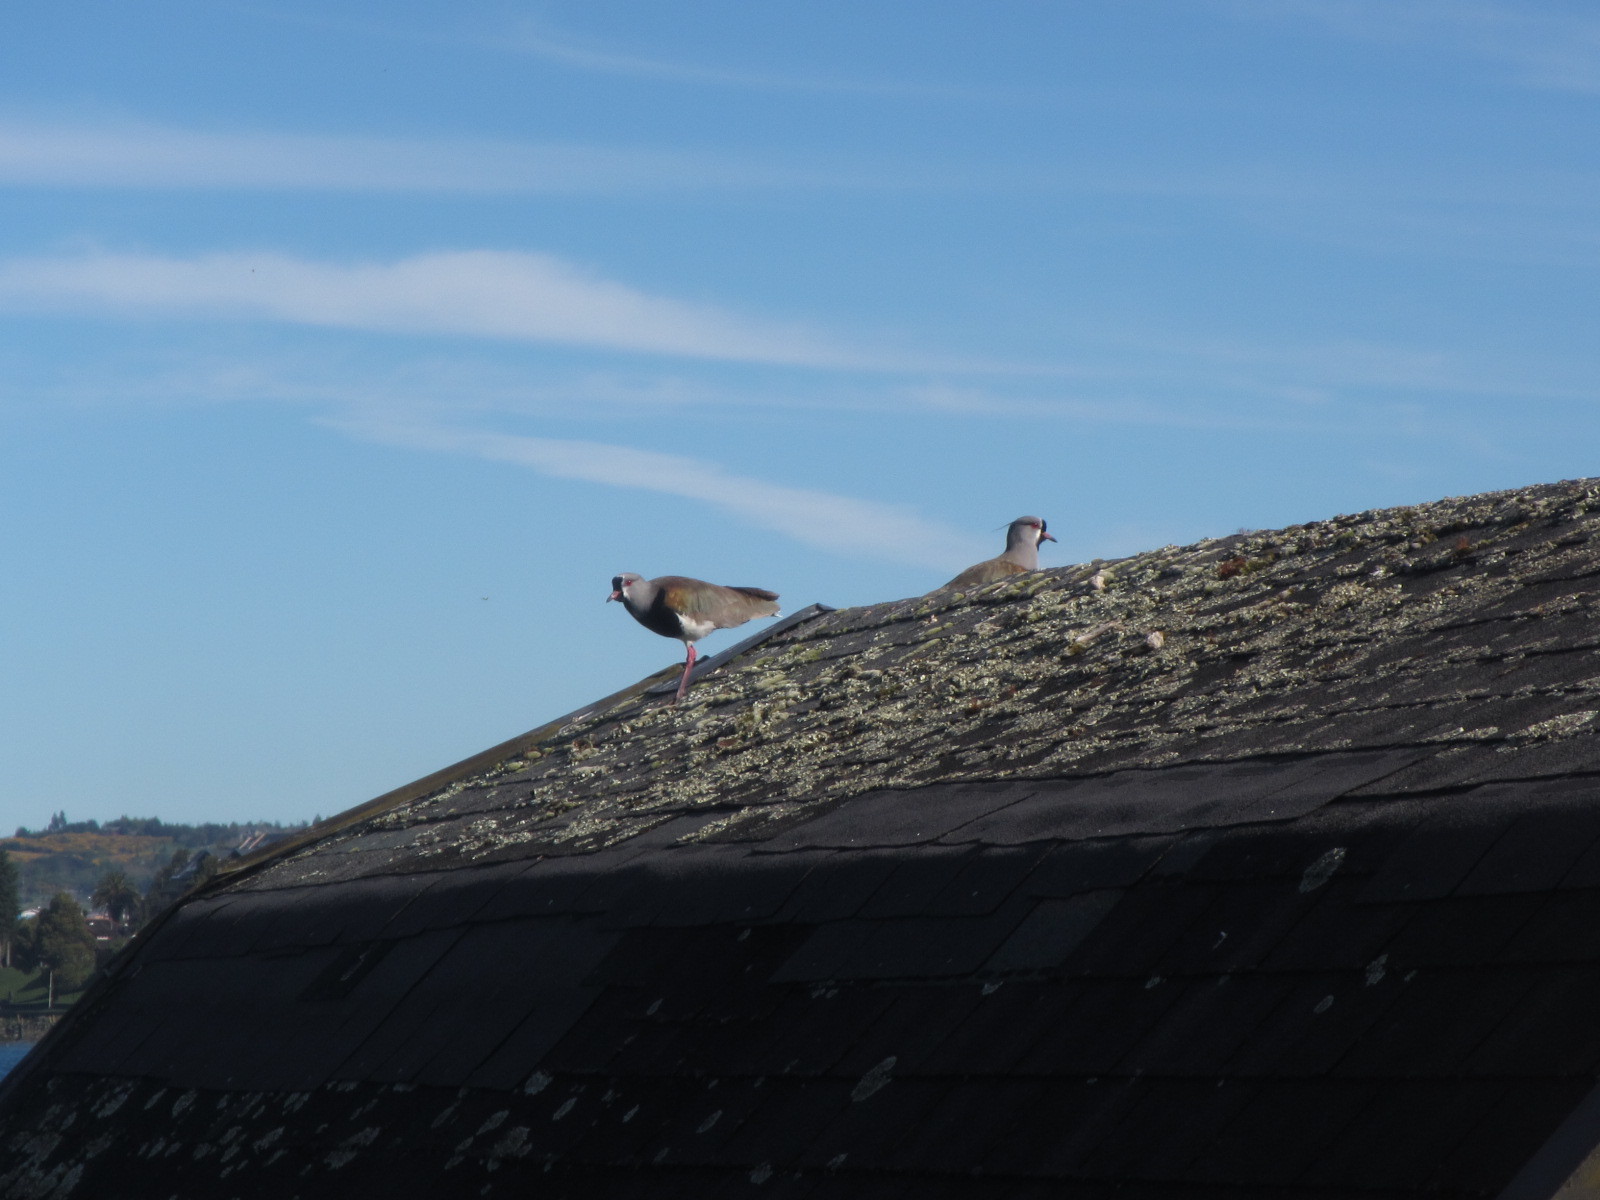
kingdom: Animalia
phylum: Chordata
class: Aves
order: Charadriiformes
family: Charadriidae
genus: Vanellus
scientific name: Vanellus chilensis
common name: Southern lapwing
